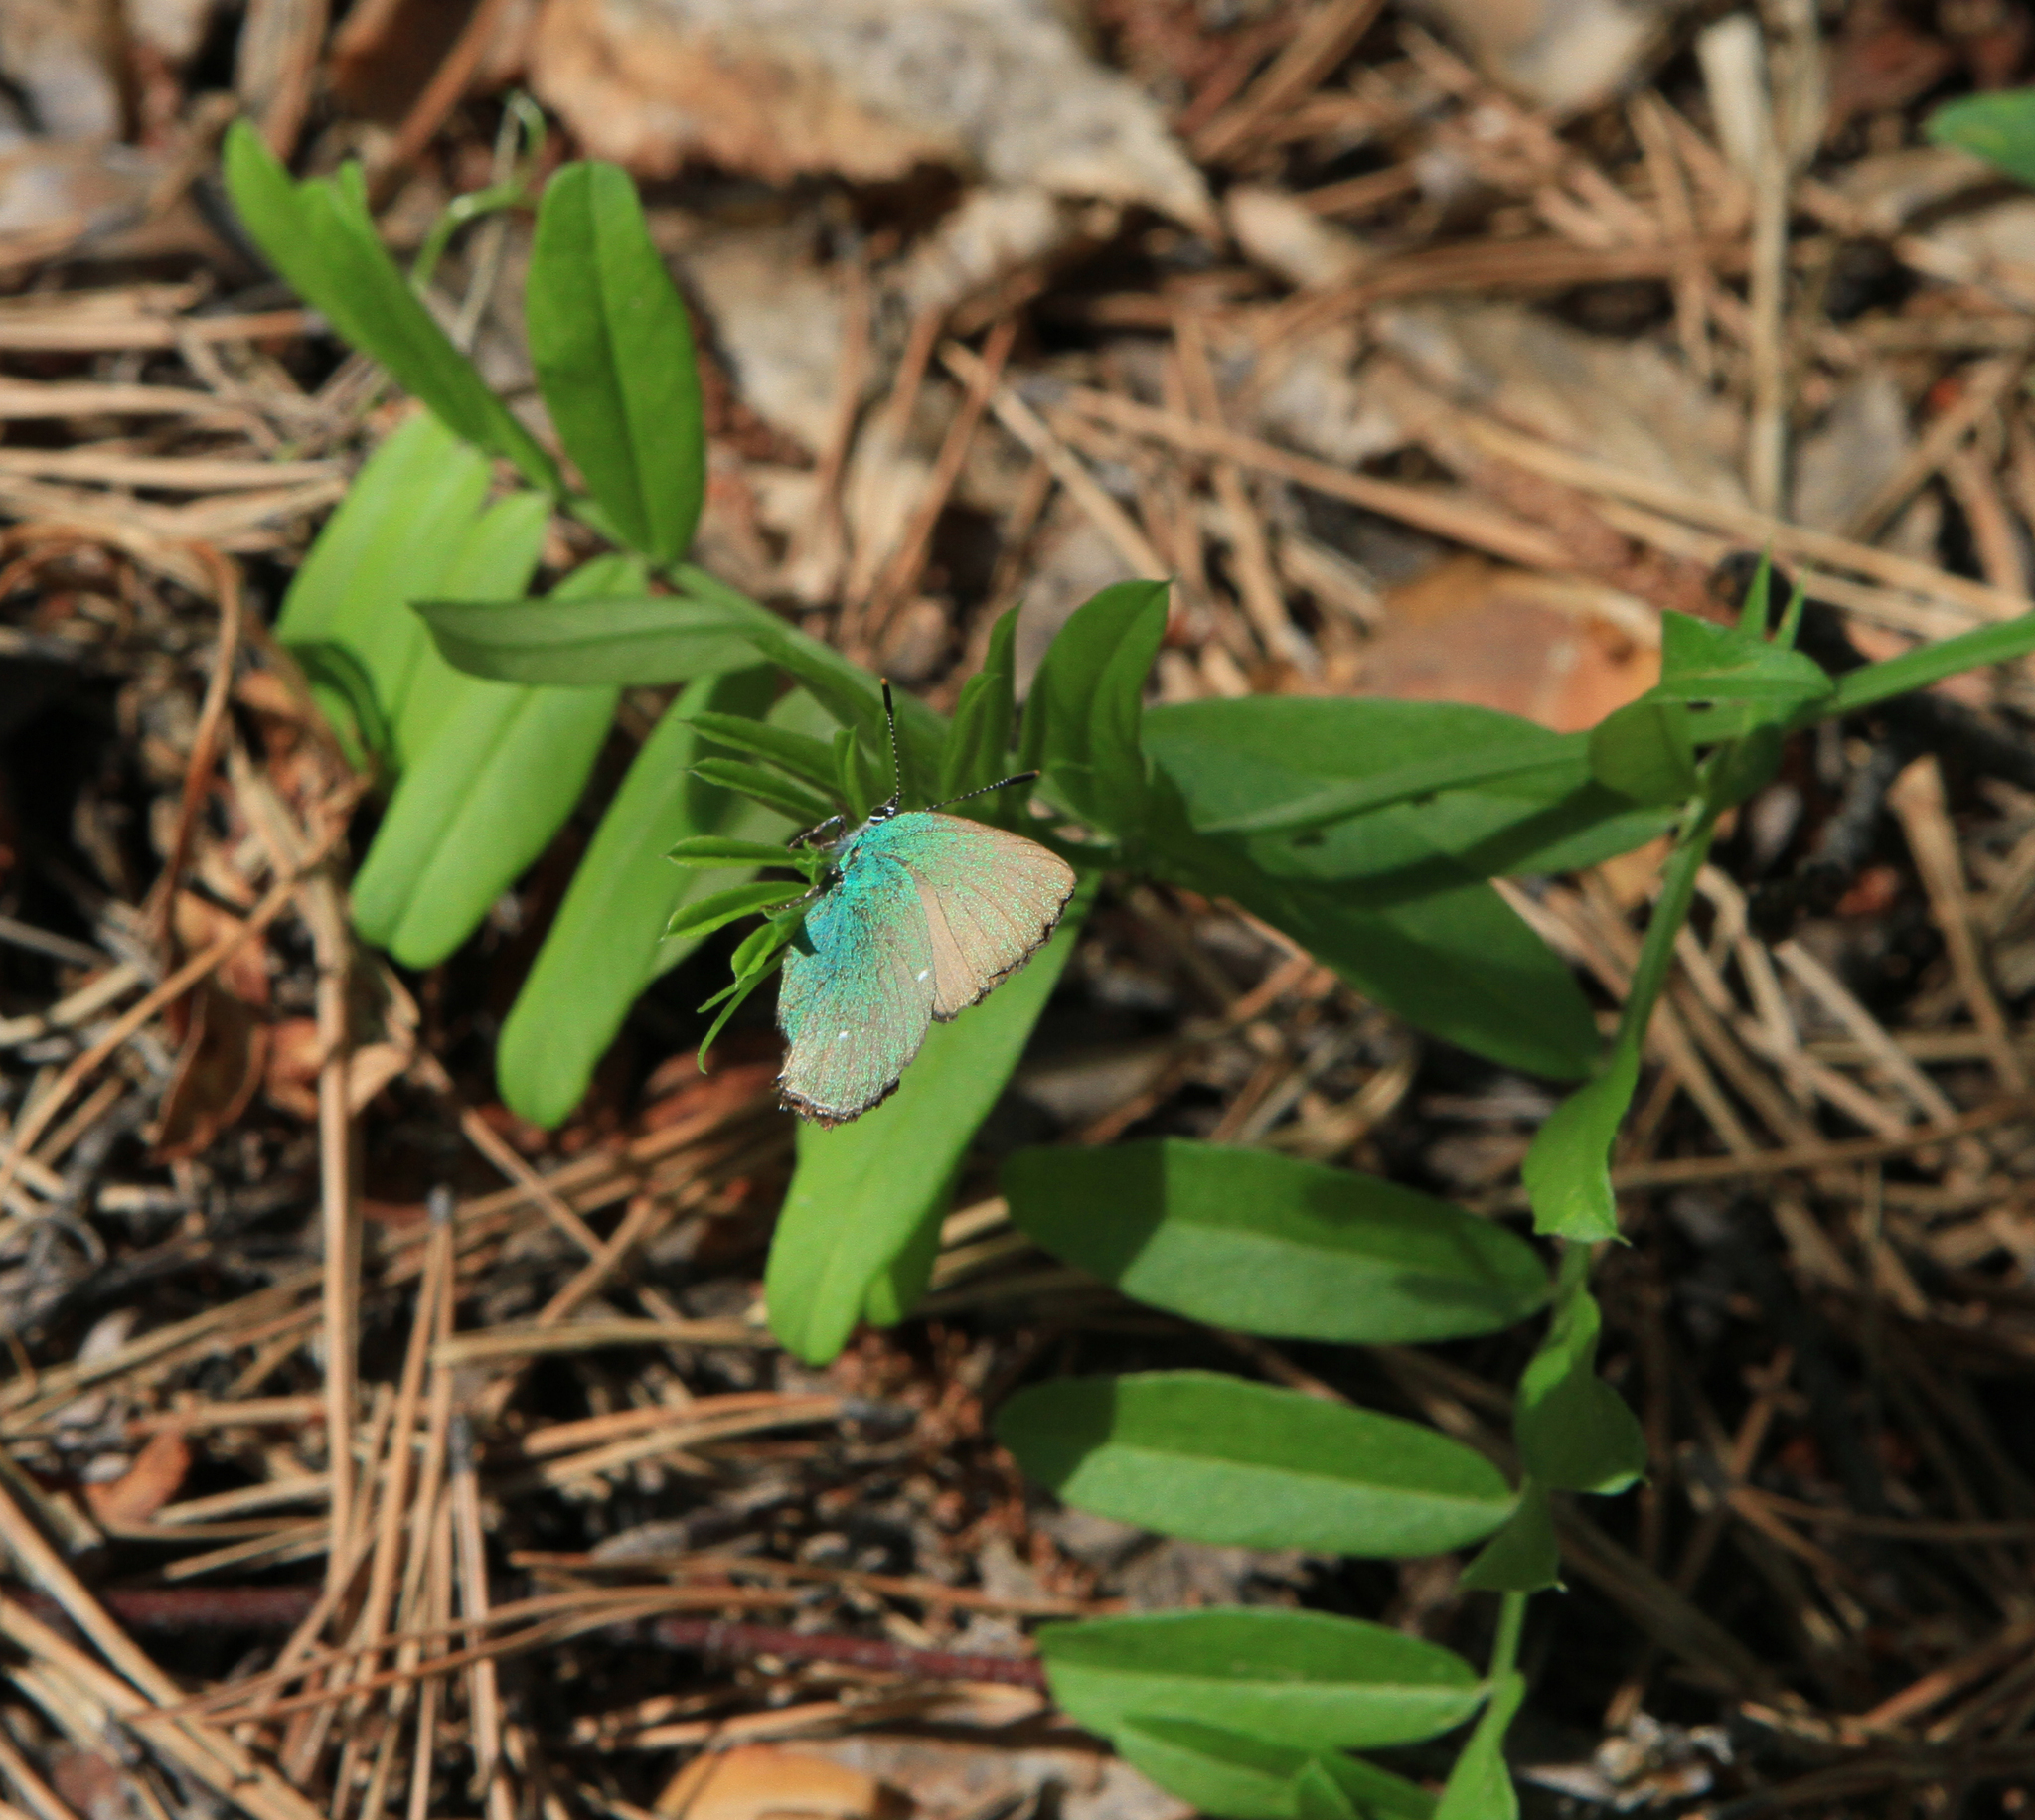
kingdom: Plantae
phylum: Tracheophyta
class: Magnoliopsida
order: Fabales
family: Fabaceae
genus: Vicia
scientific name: Vicia amoena
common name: Cheder ebs
